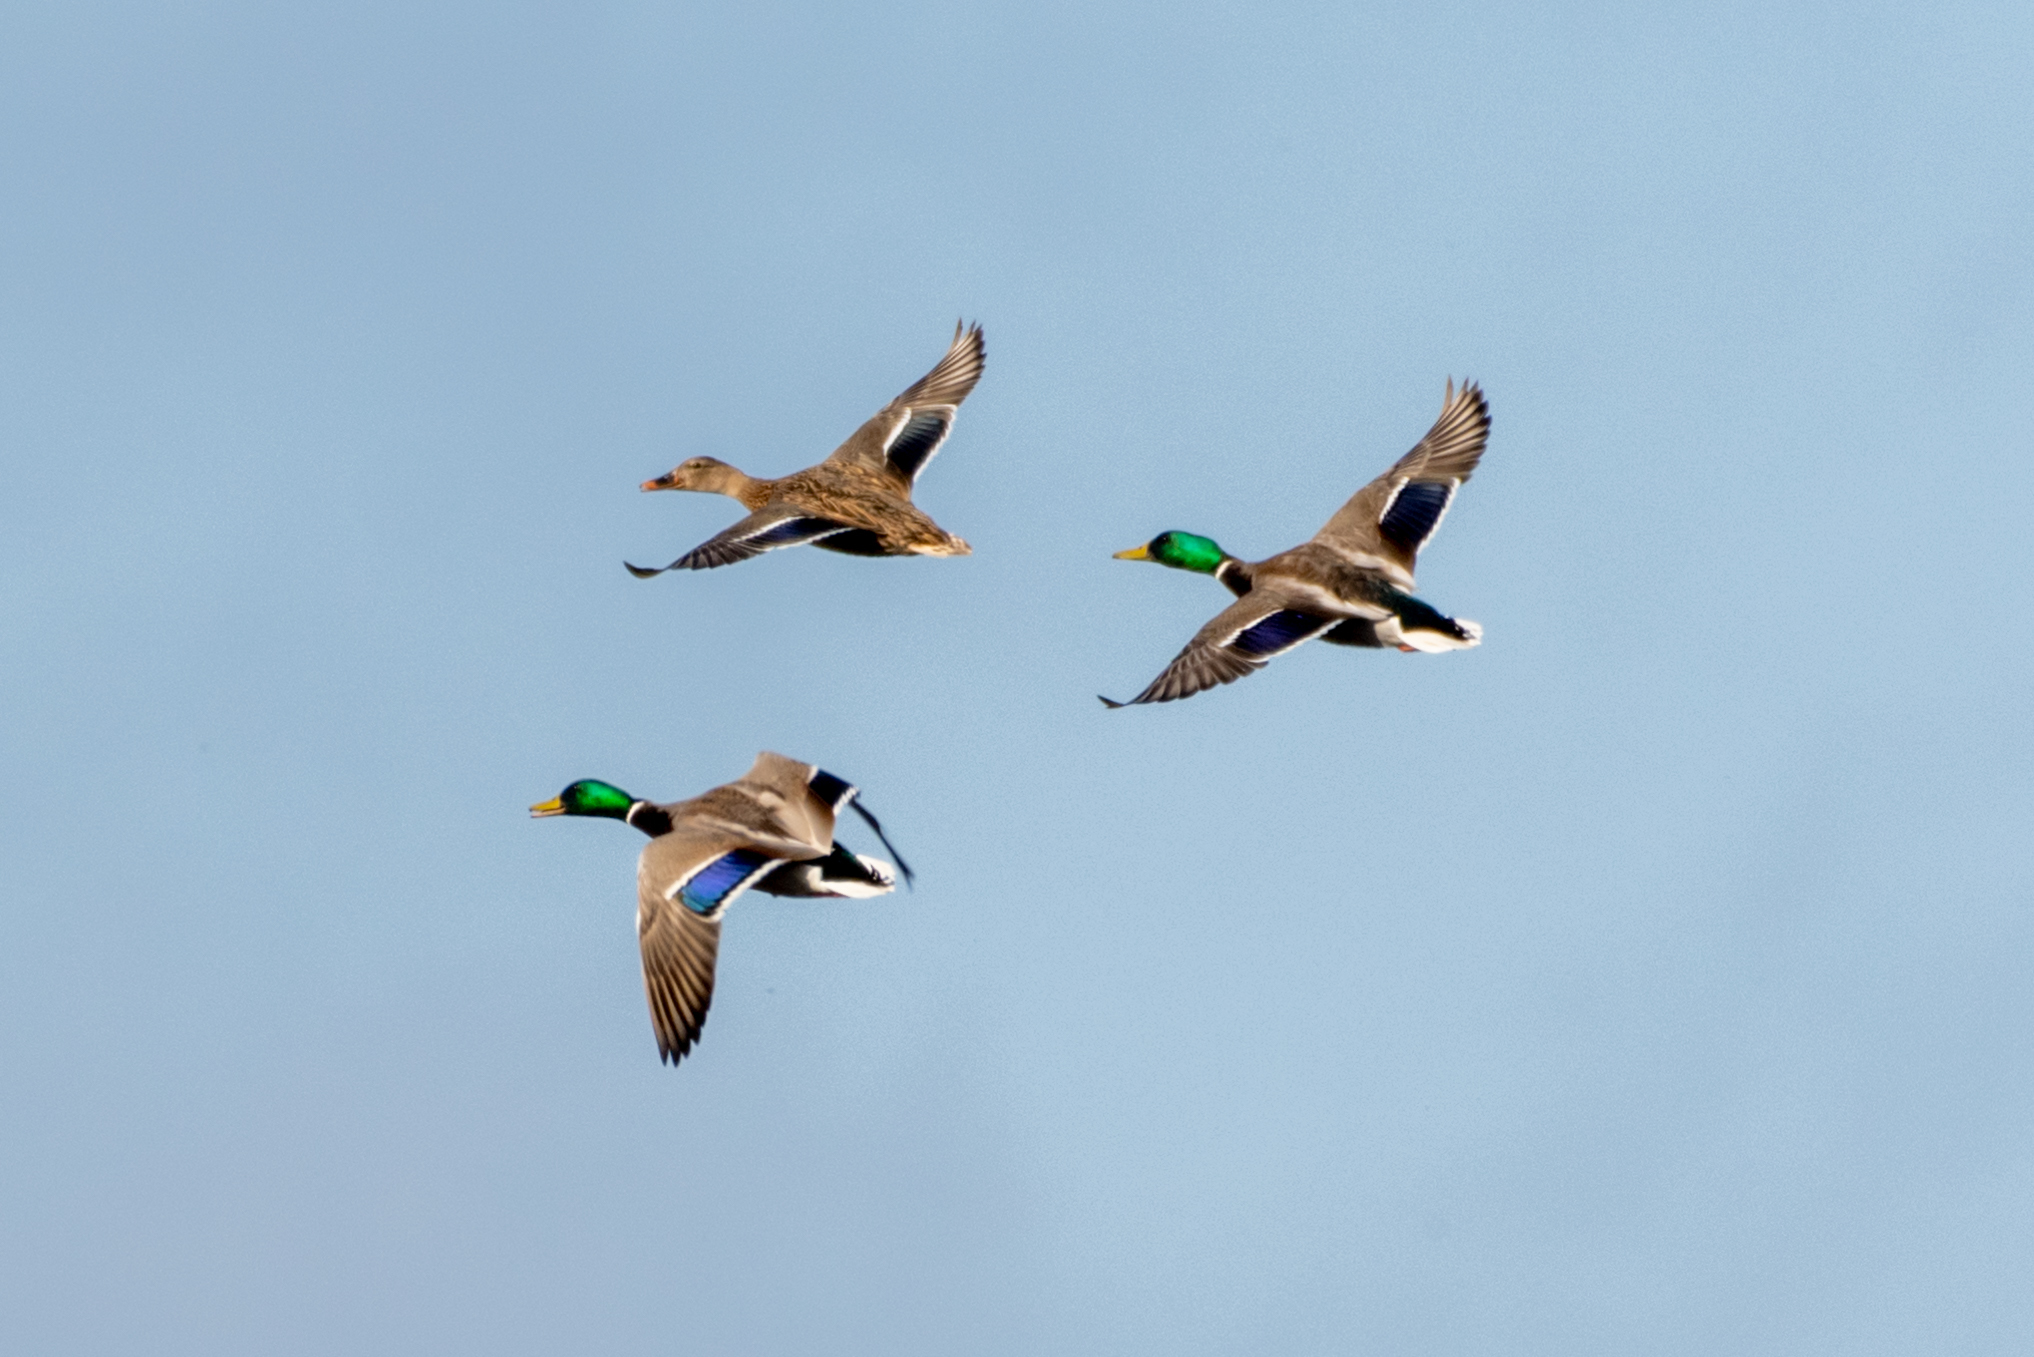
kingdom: Animalia
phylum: Chordata
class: Aves
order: Anseriformes
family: Anatidae
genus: Anas
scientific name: Anas platyrhynchos
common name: Mallard
